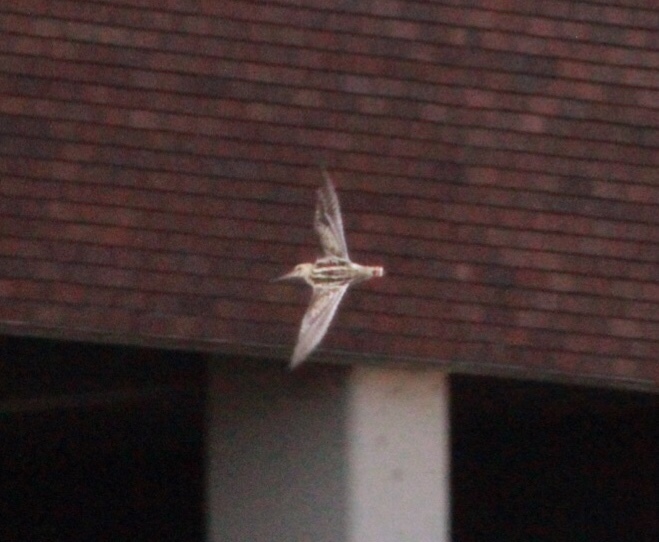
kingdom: Animalia
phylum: Chordata
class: Aves
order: Charadriiformes
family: Scolopacidae
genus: Gallinago
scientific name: Gallinago delicata
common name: Wilson's snipe
